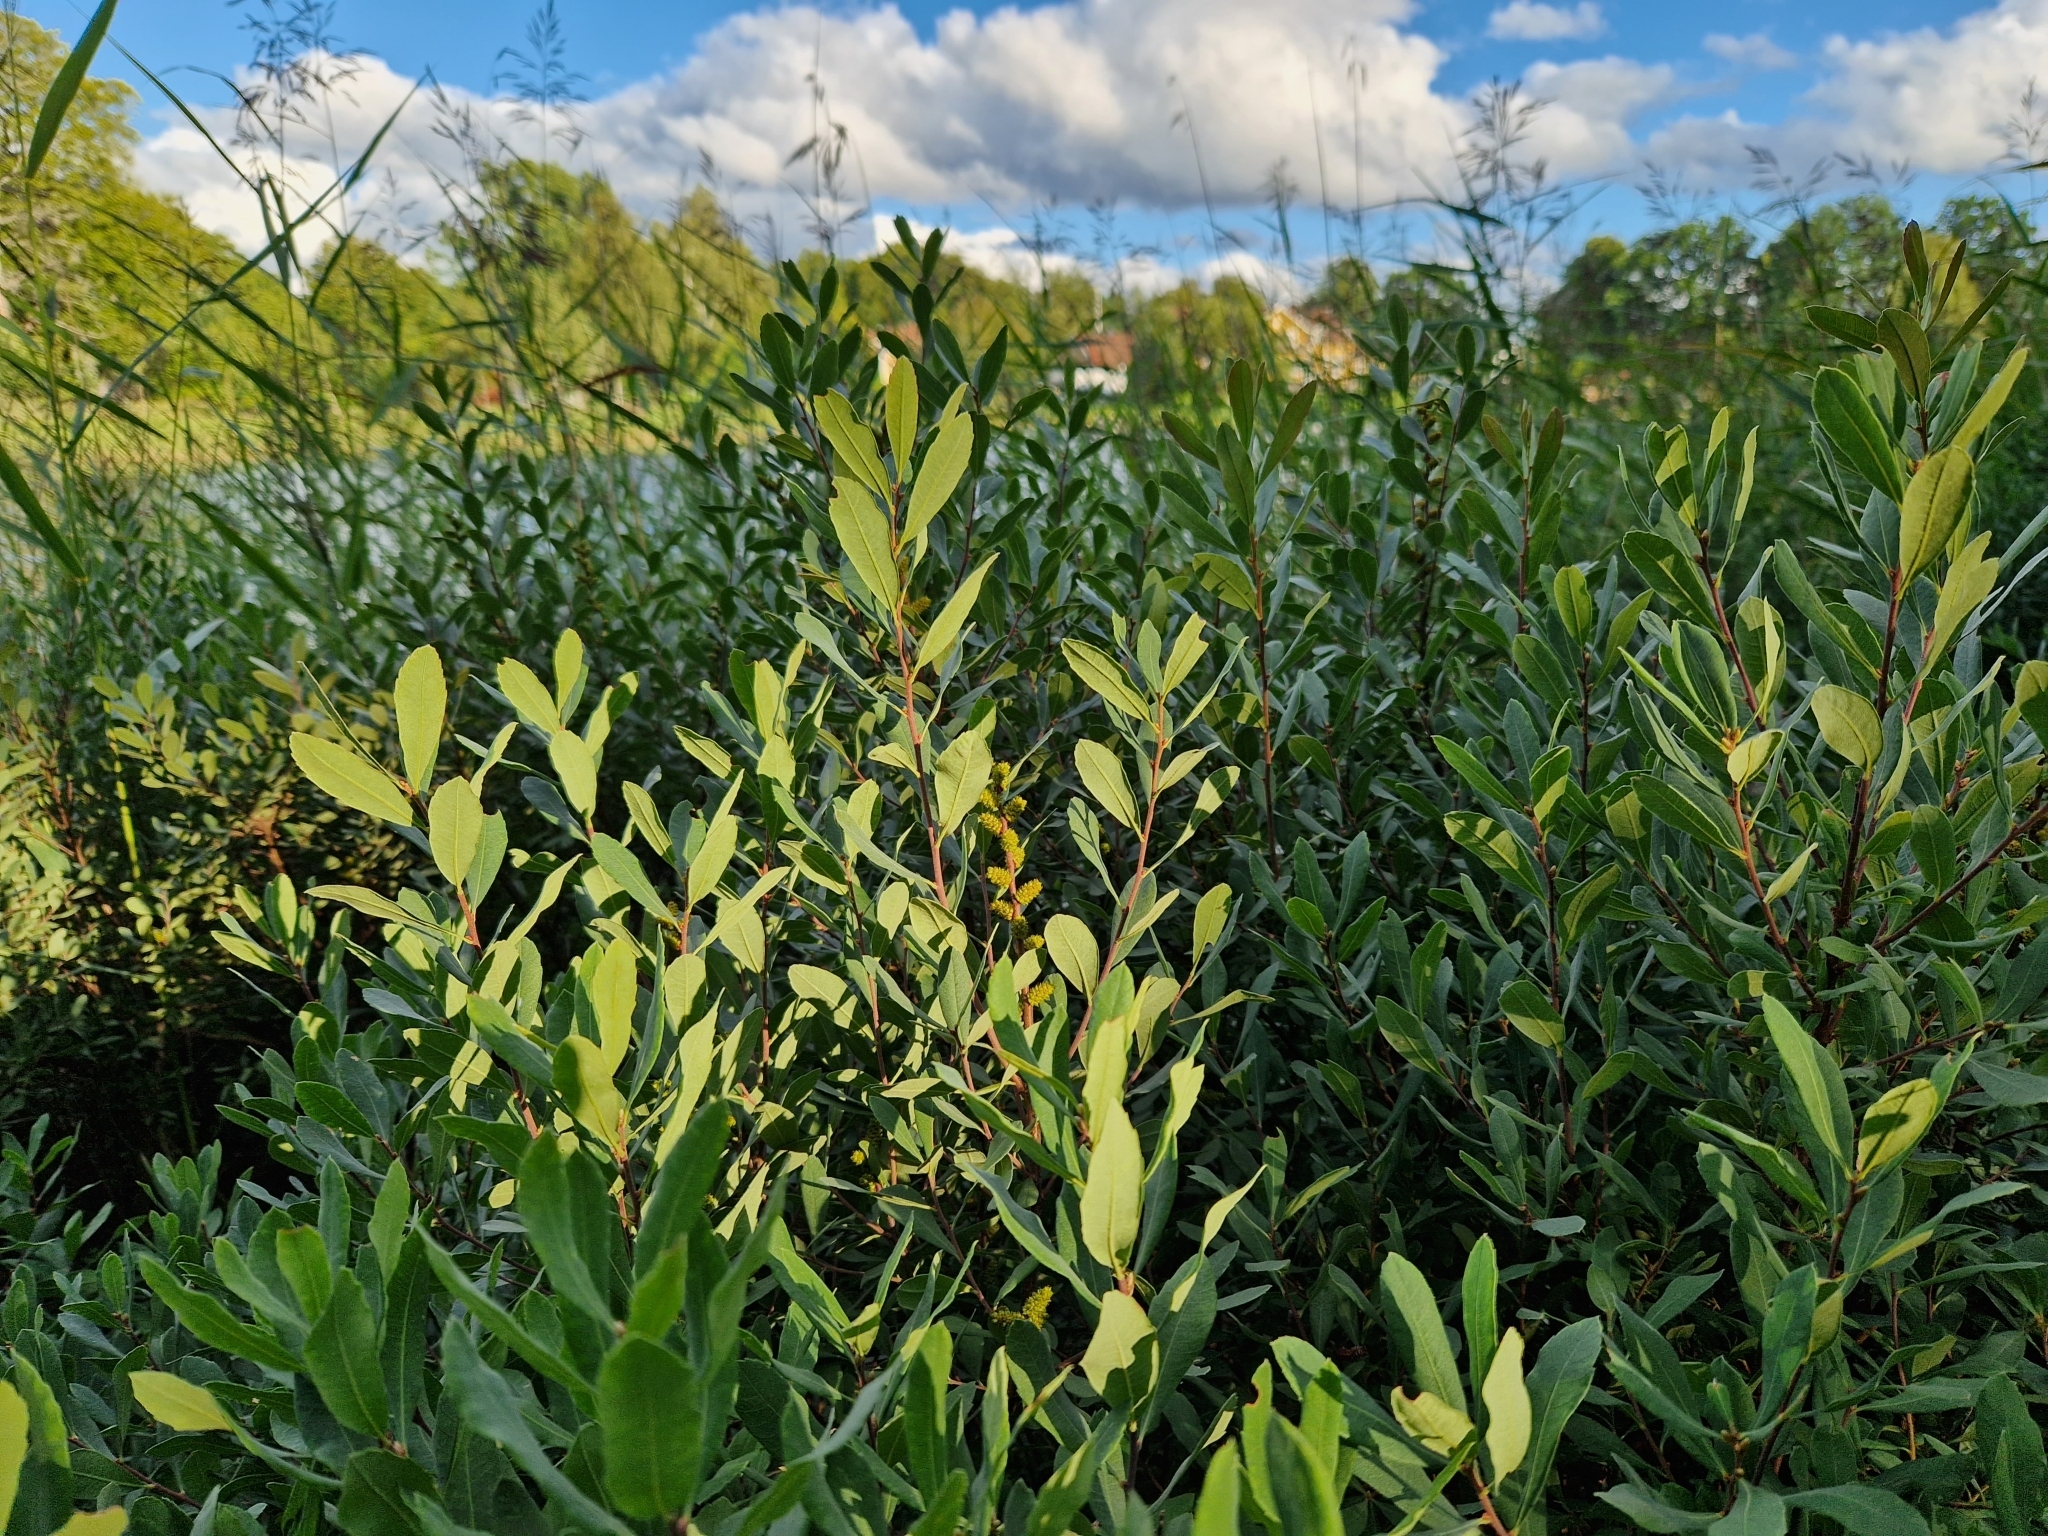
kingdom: Plantae
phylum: Tracheophyta
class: Magnoliopsida
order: Fagales
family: Myricaceae
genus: Myrica
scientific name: Myrica gale
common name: Sweet gale
